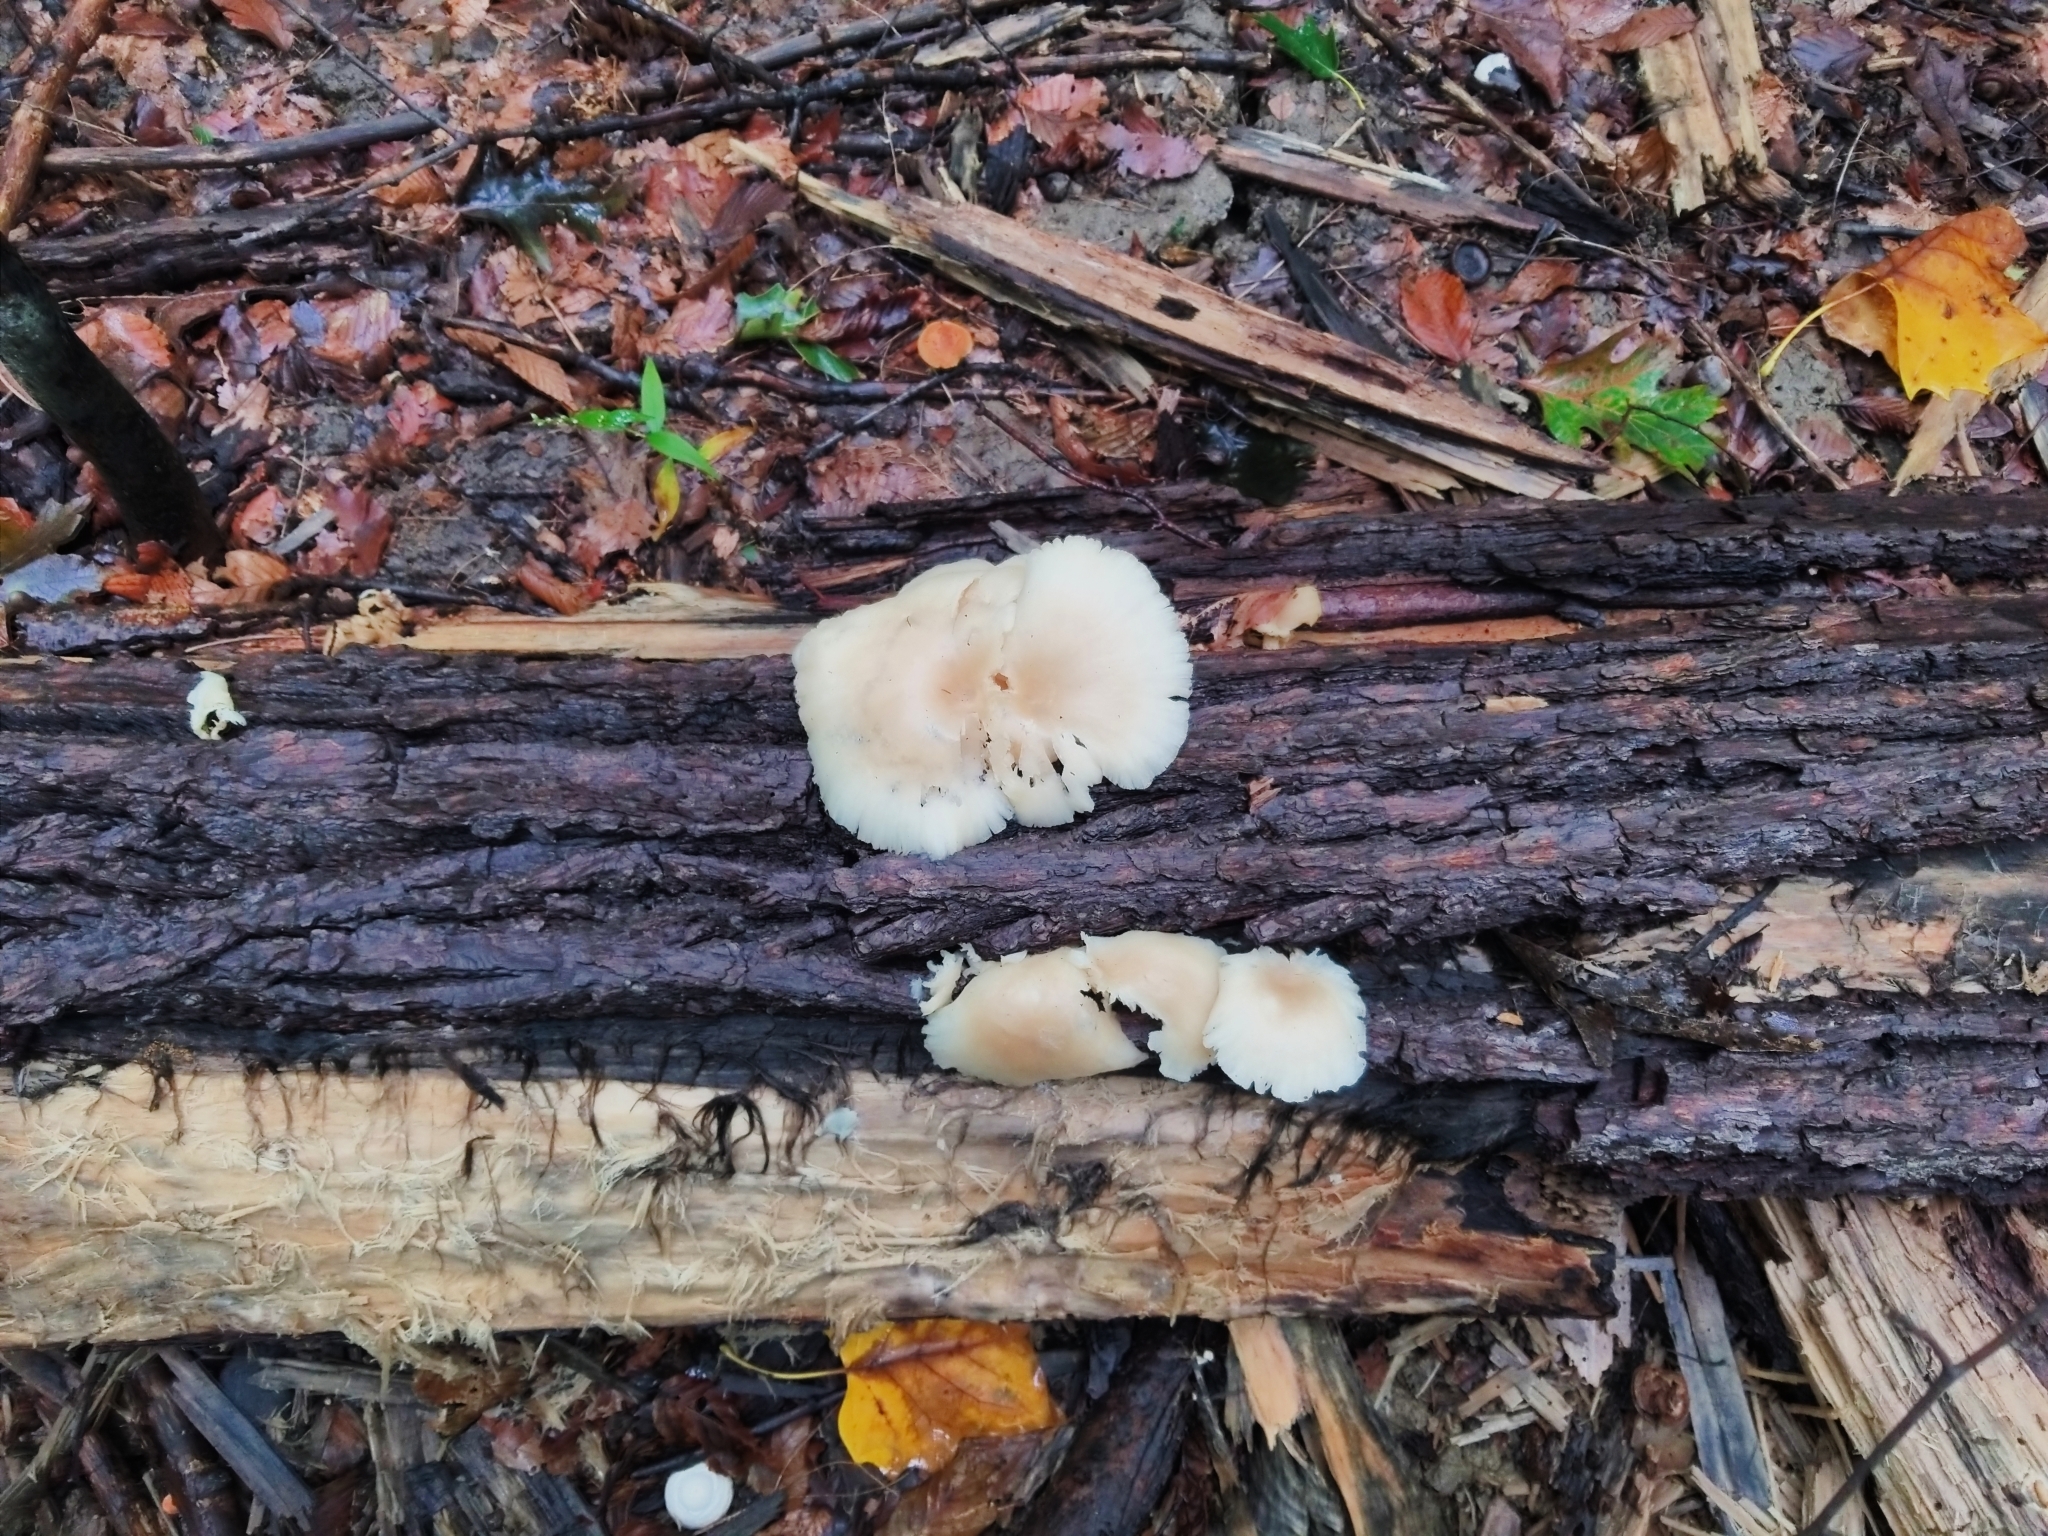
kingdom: Fungi
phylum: Basidiomycota
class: Agaricomycetes
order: Agaricales
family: Pleurotaceae
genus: Pleurotus
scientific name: Pleurotus ostreatus
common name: Oyster mushroom
